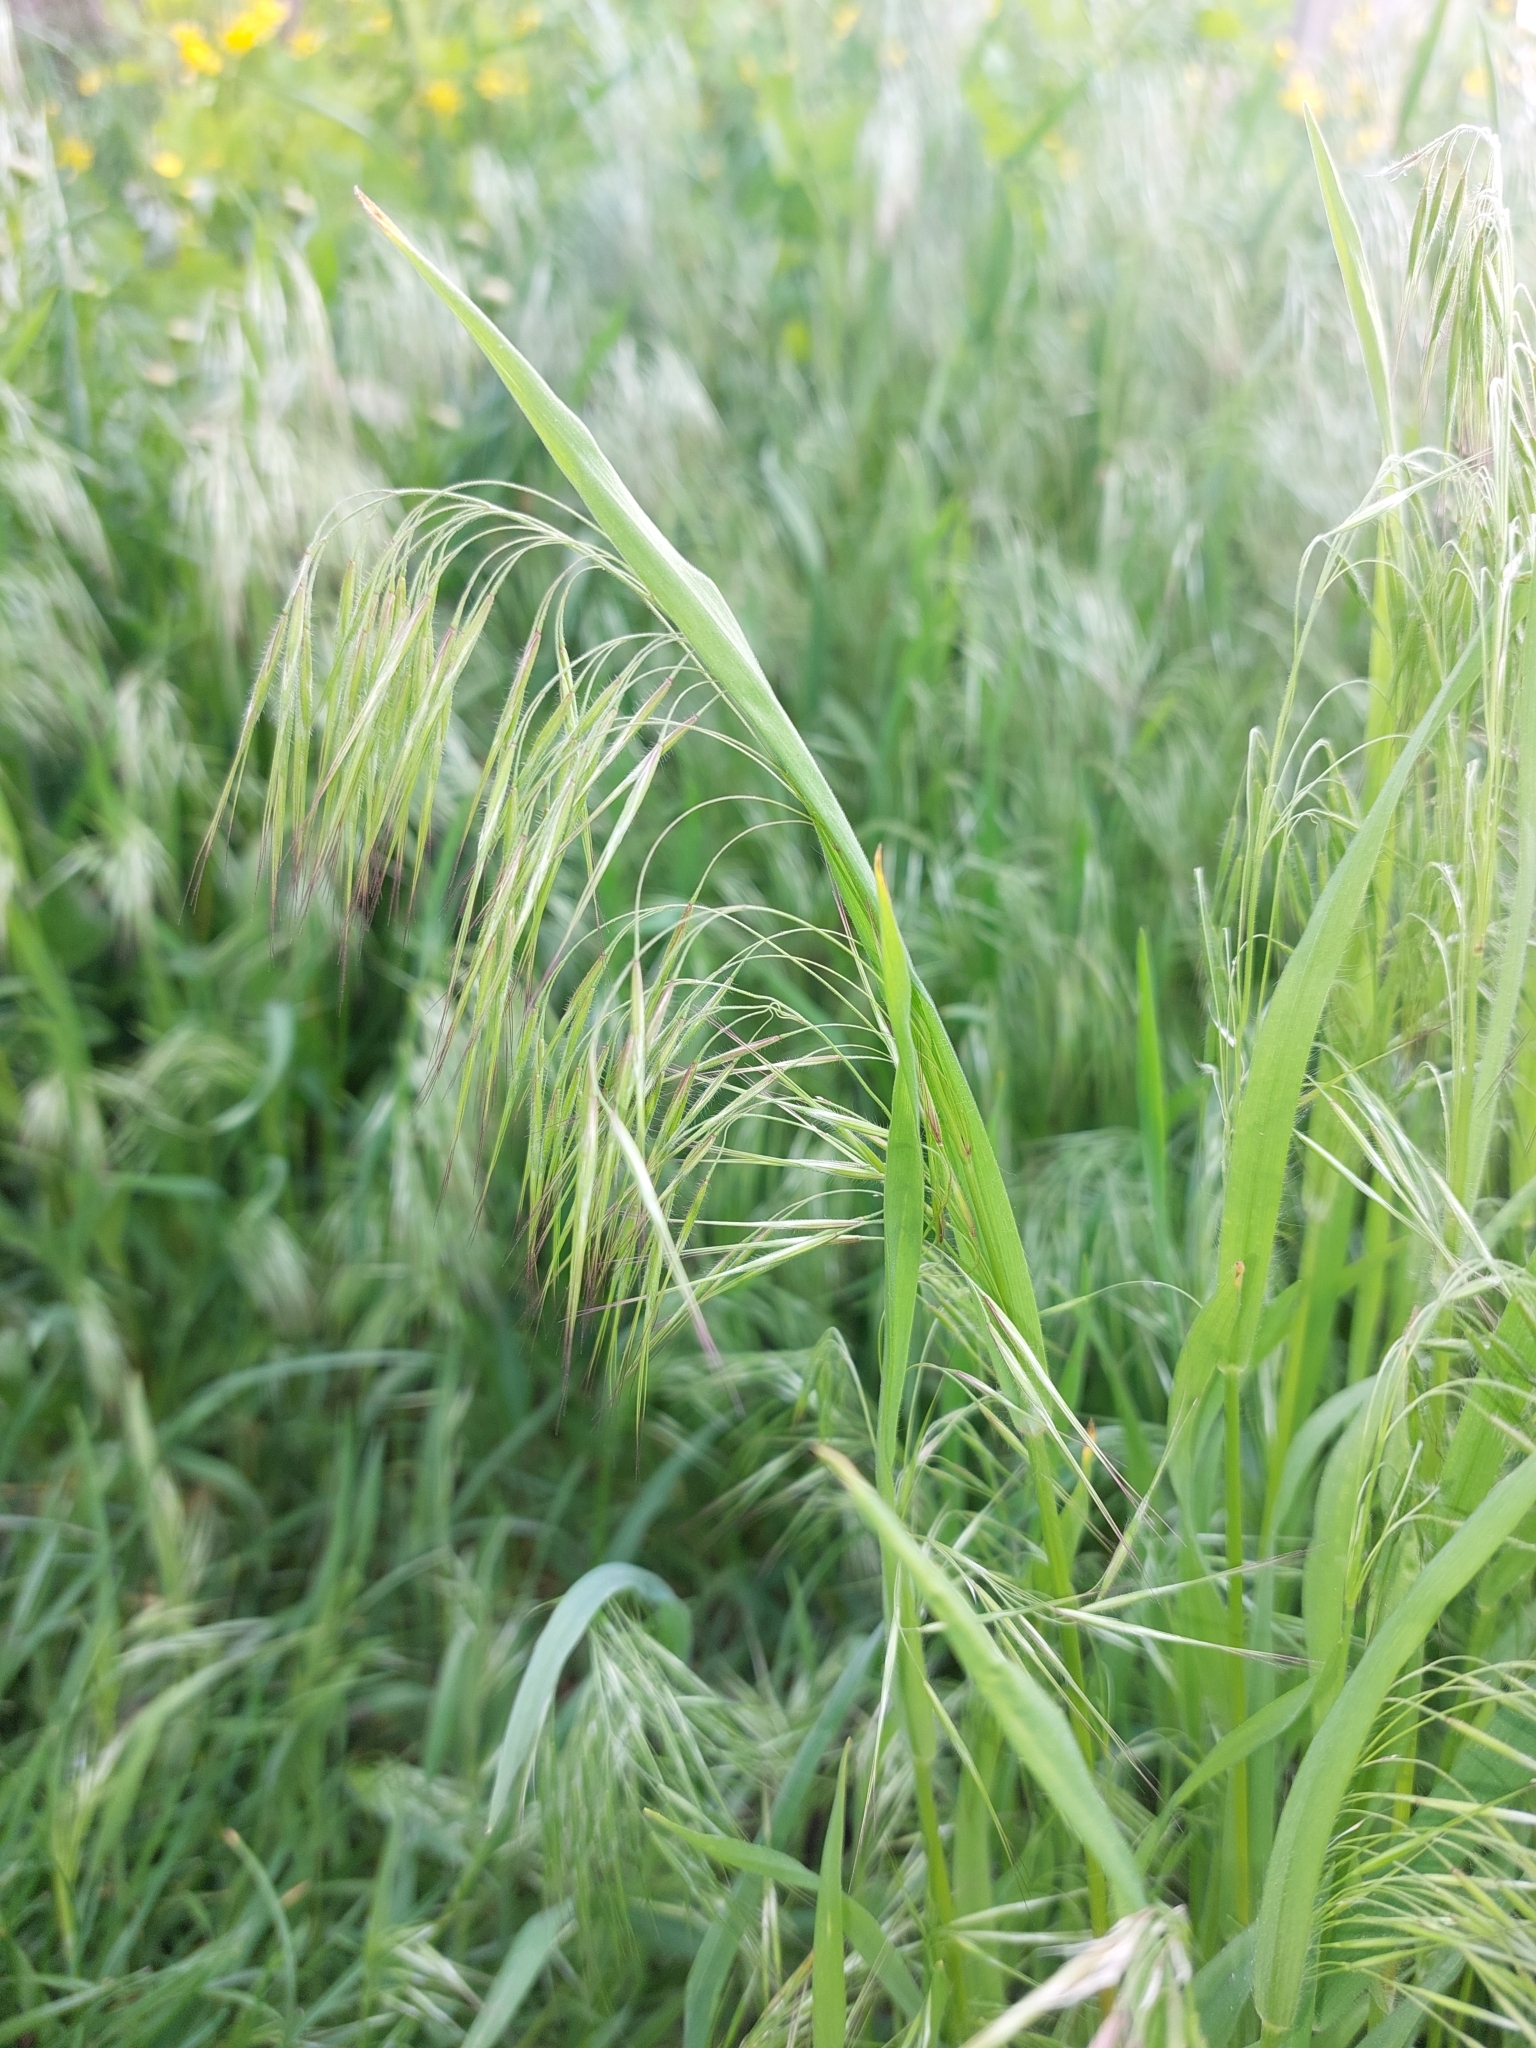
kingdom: Plantae
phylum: Tracheophyta
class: Liliopsida
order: Poales
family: Poaceae
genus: Bromus
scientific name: Bromus tectorum
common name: Cheatgrass
